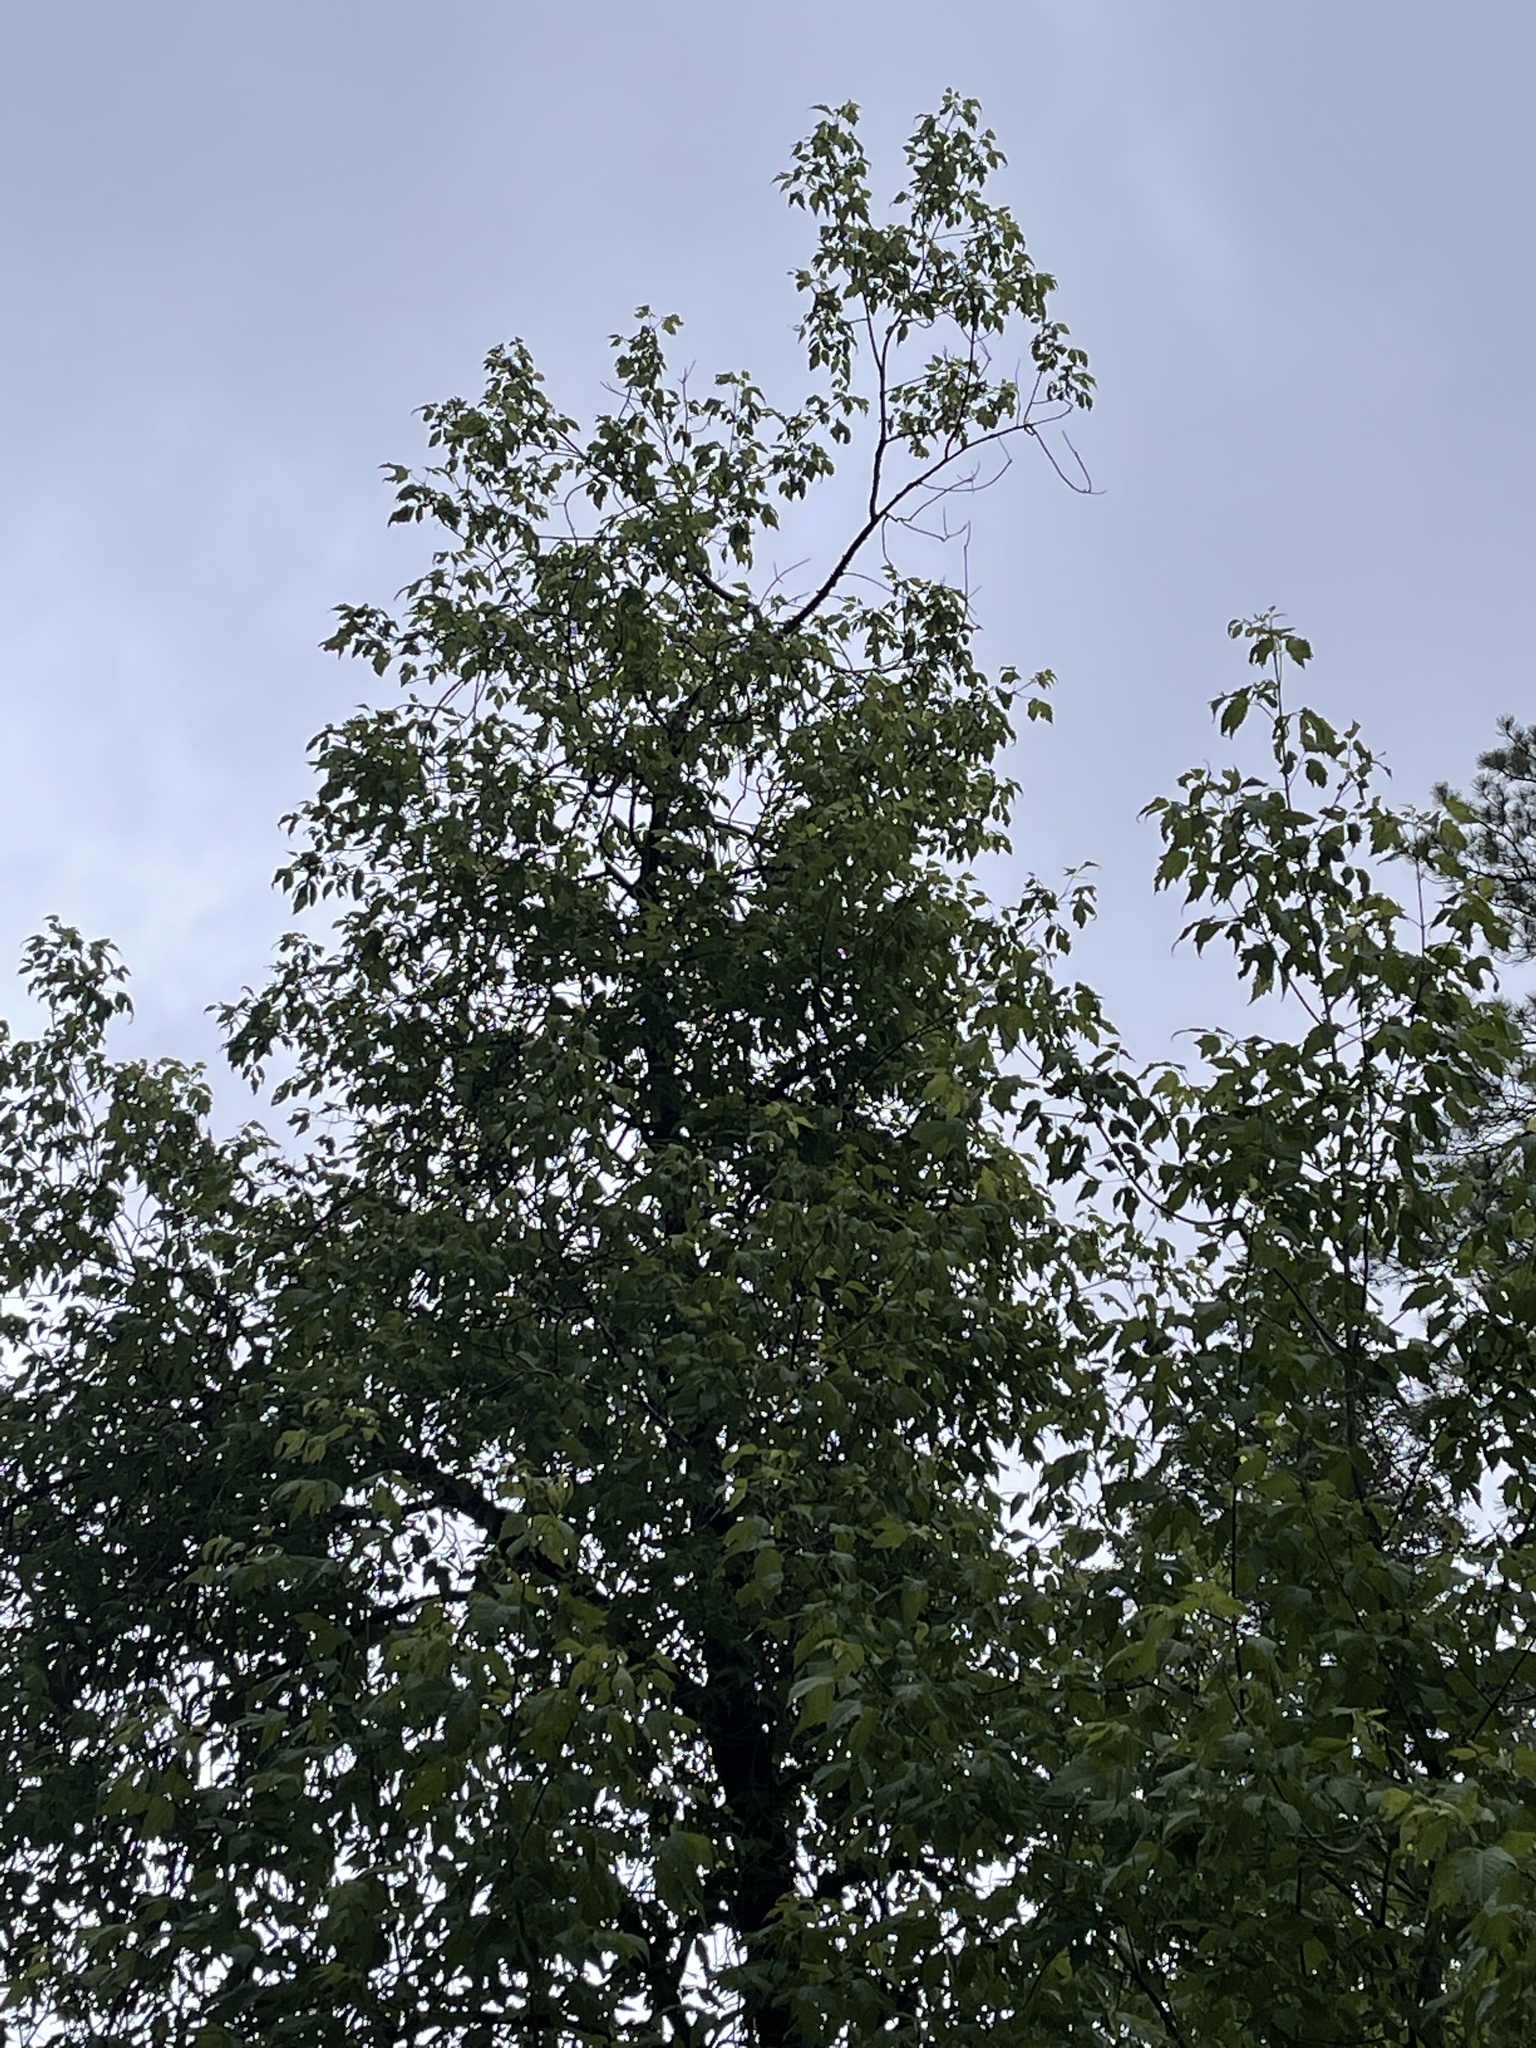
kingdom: Plantae
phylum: Tracheophyta
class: Magnoliopsida
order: Sapindales
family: Sapindaceae
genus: Acer
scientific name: Acer negundo
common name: Ashleaf maple
